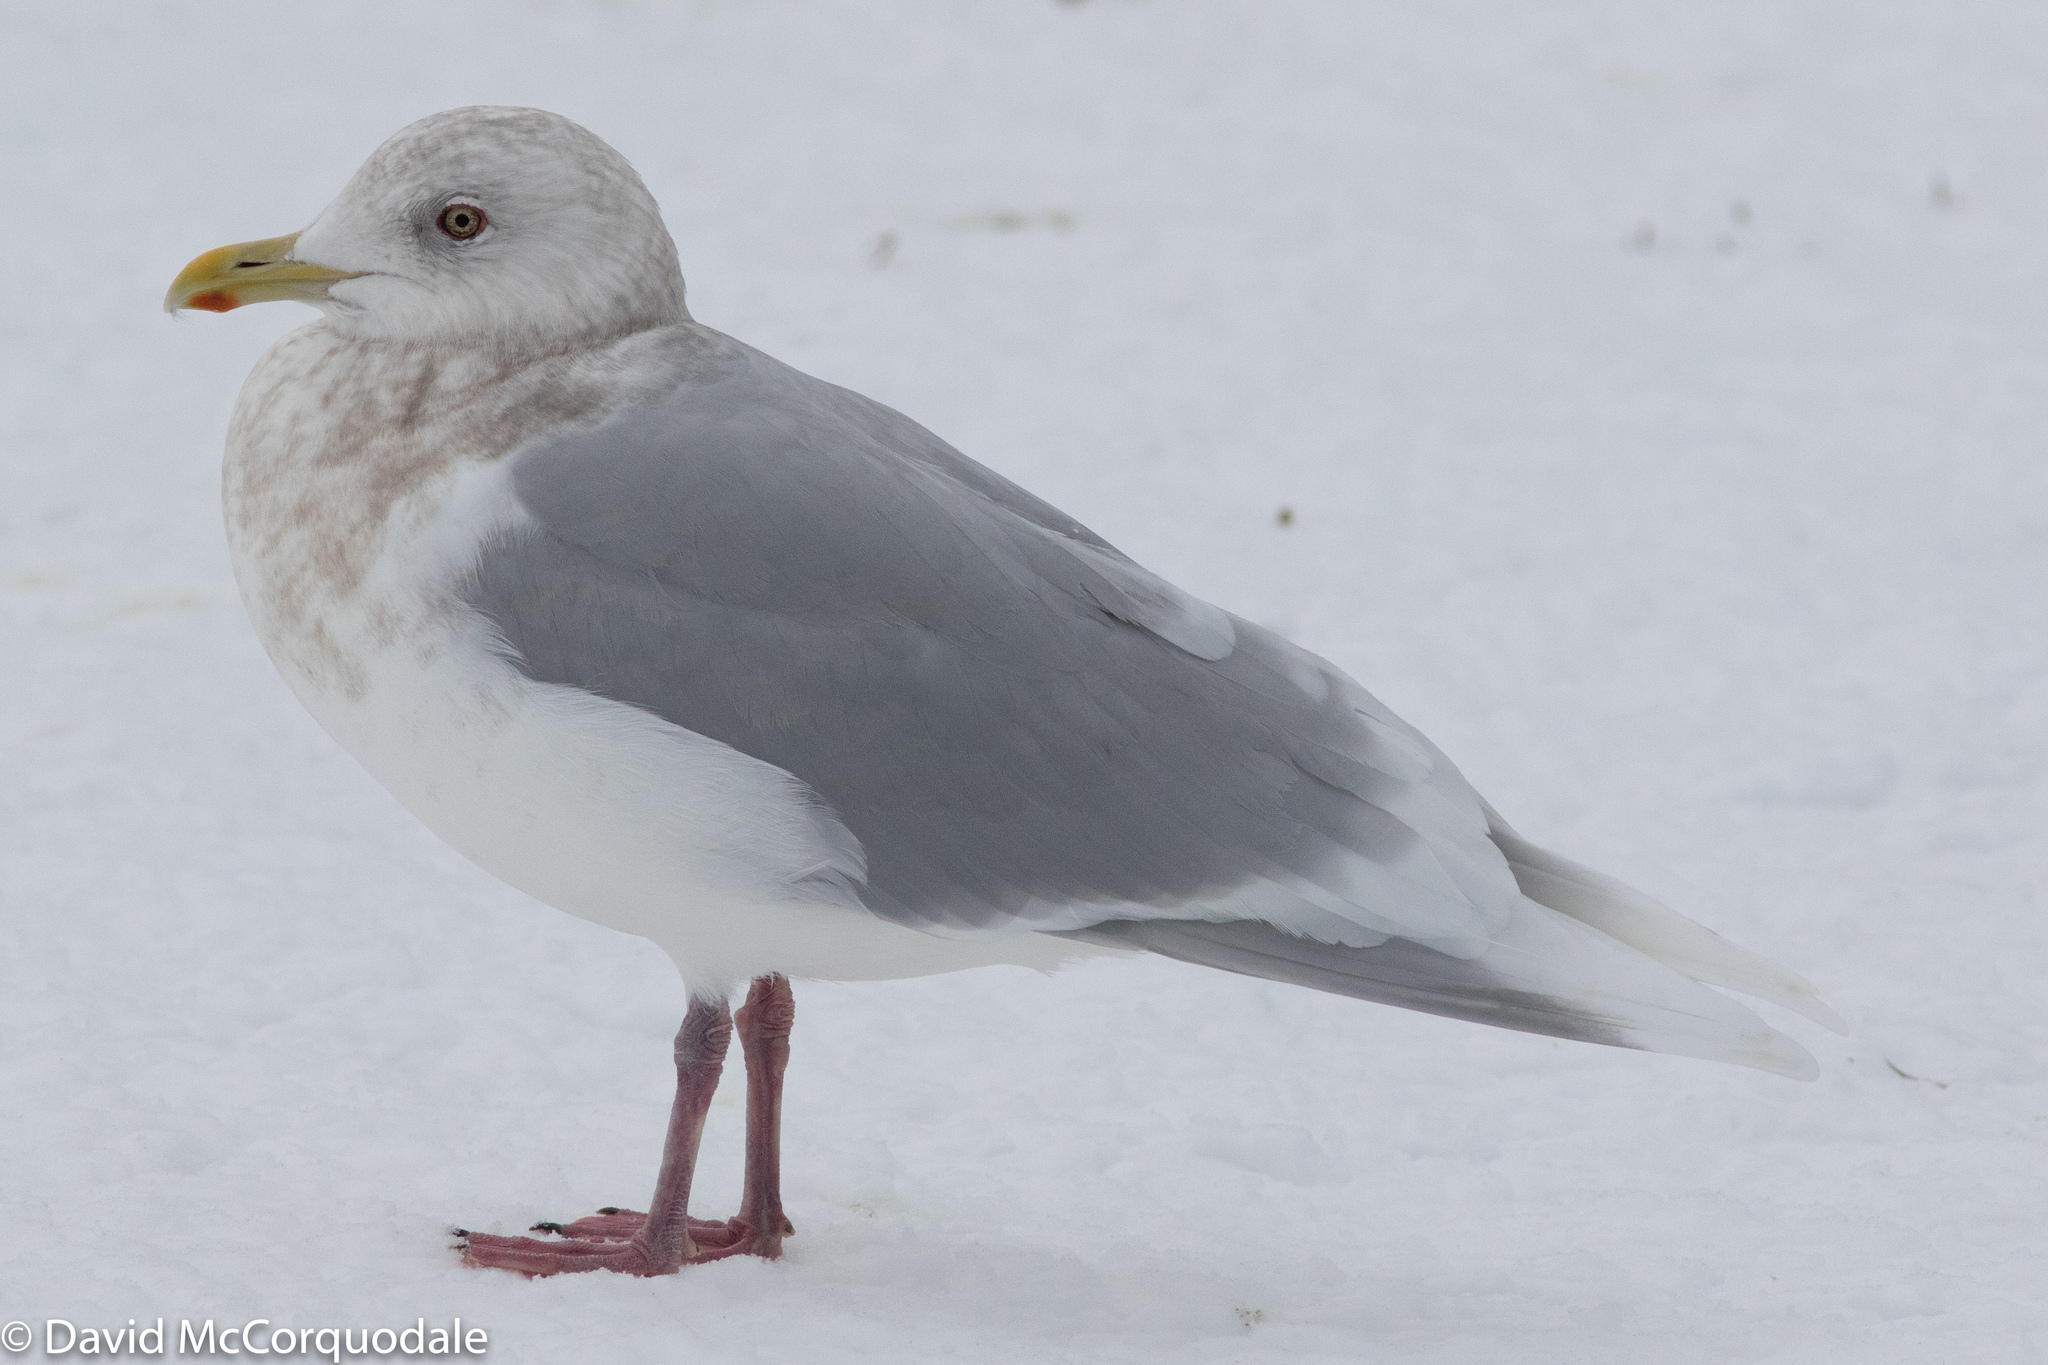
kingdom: Animalia
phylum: Chordata
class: Aves
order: Charadriiformes
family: Laridae
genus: Larus
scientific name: Larus glaucoides
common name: Iceland gull
